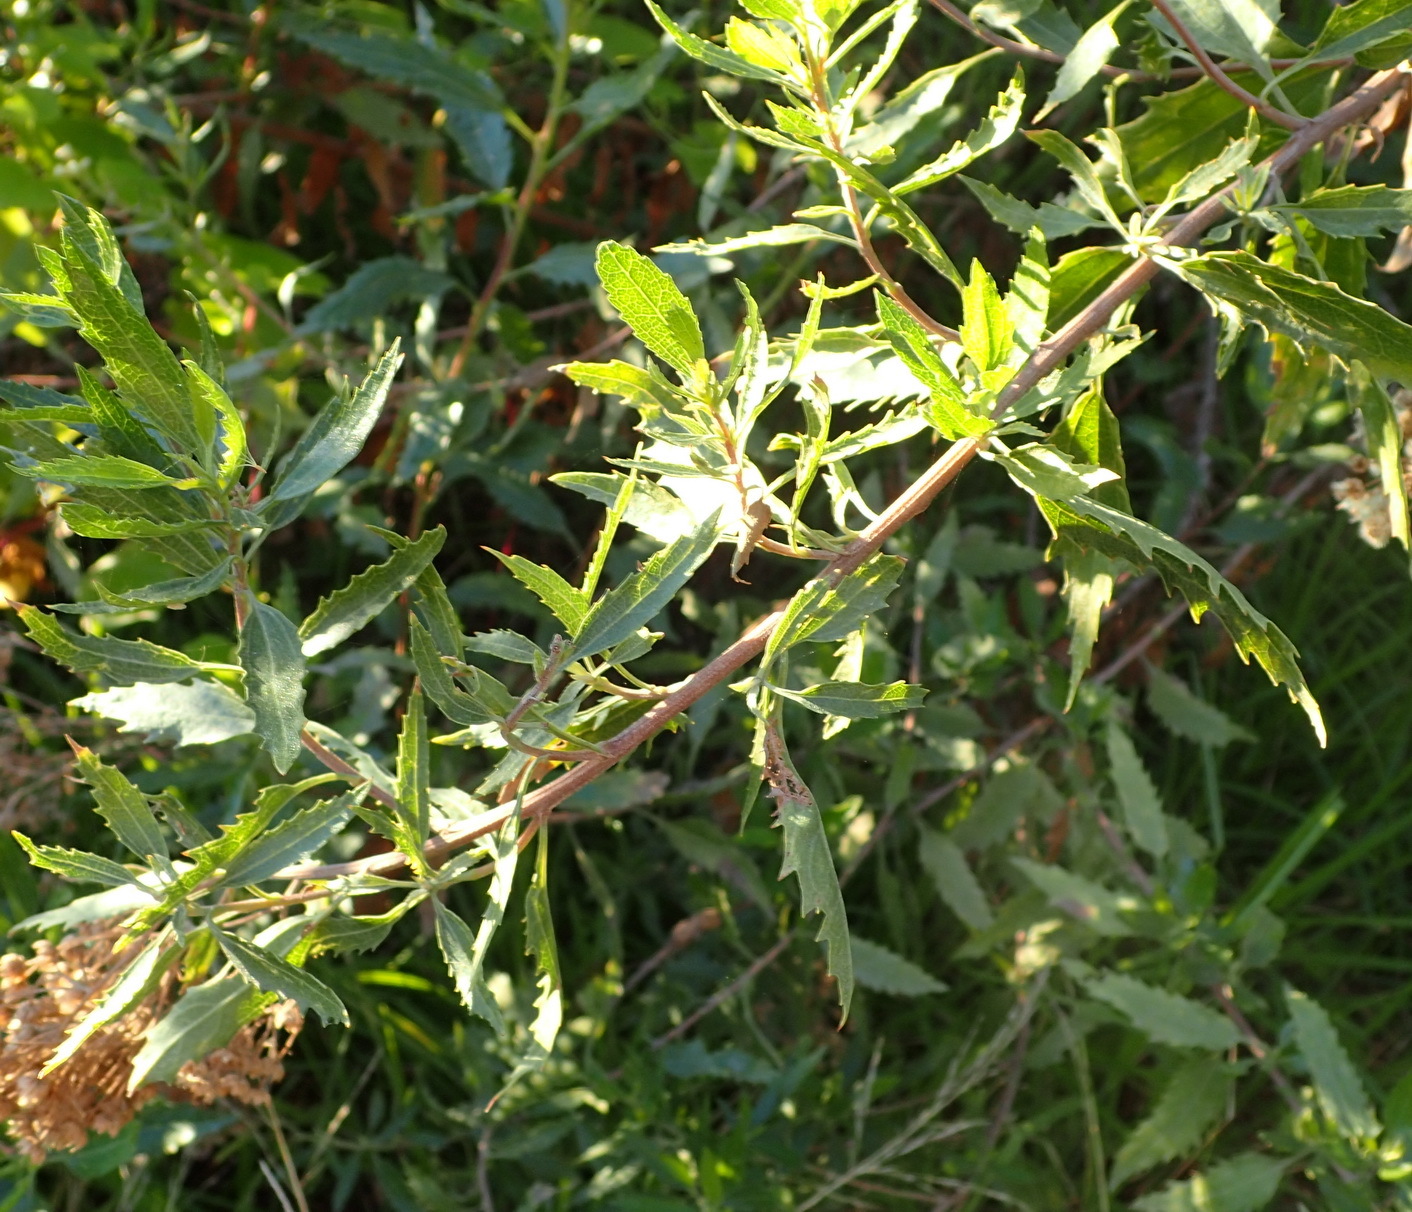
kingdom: Plantae
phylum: Tracheophyta
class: Magnoliopsida
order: Asterales
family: Asteraceae
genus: Nidorella
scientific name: Nidorella ivifolia
